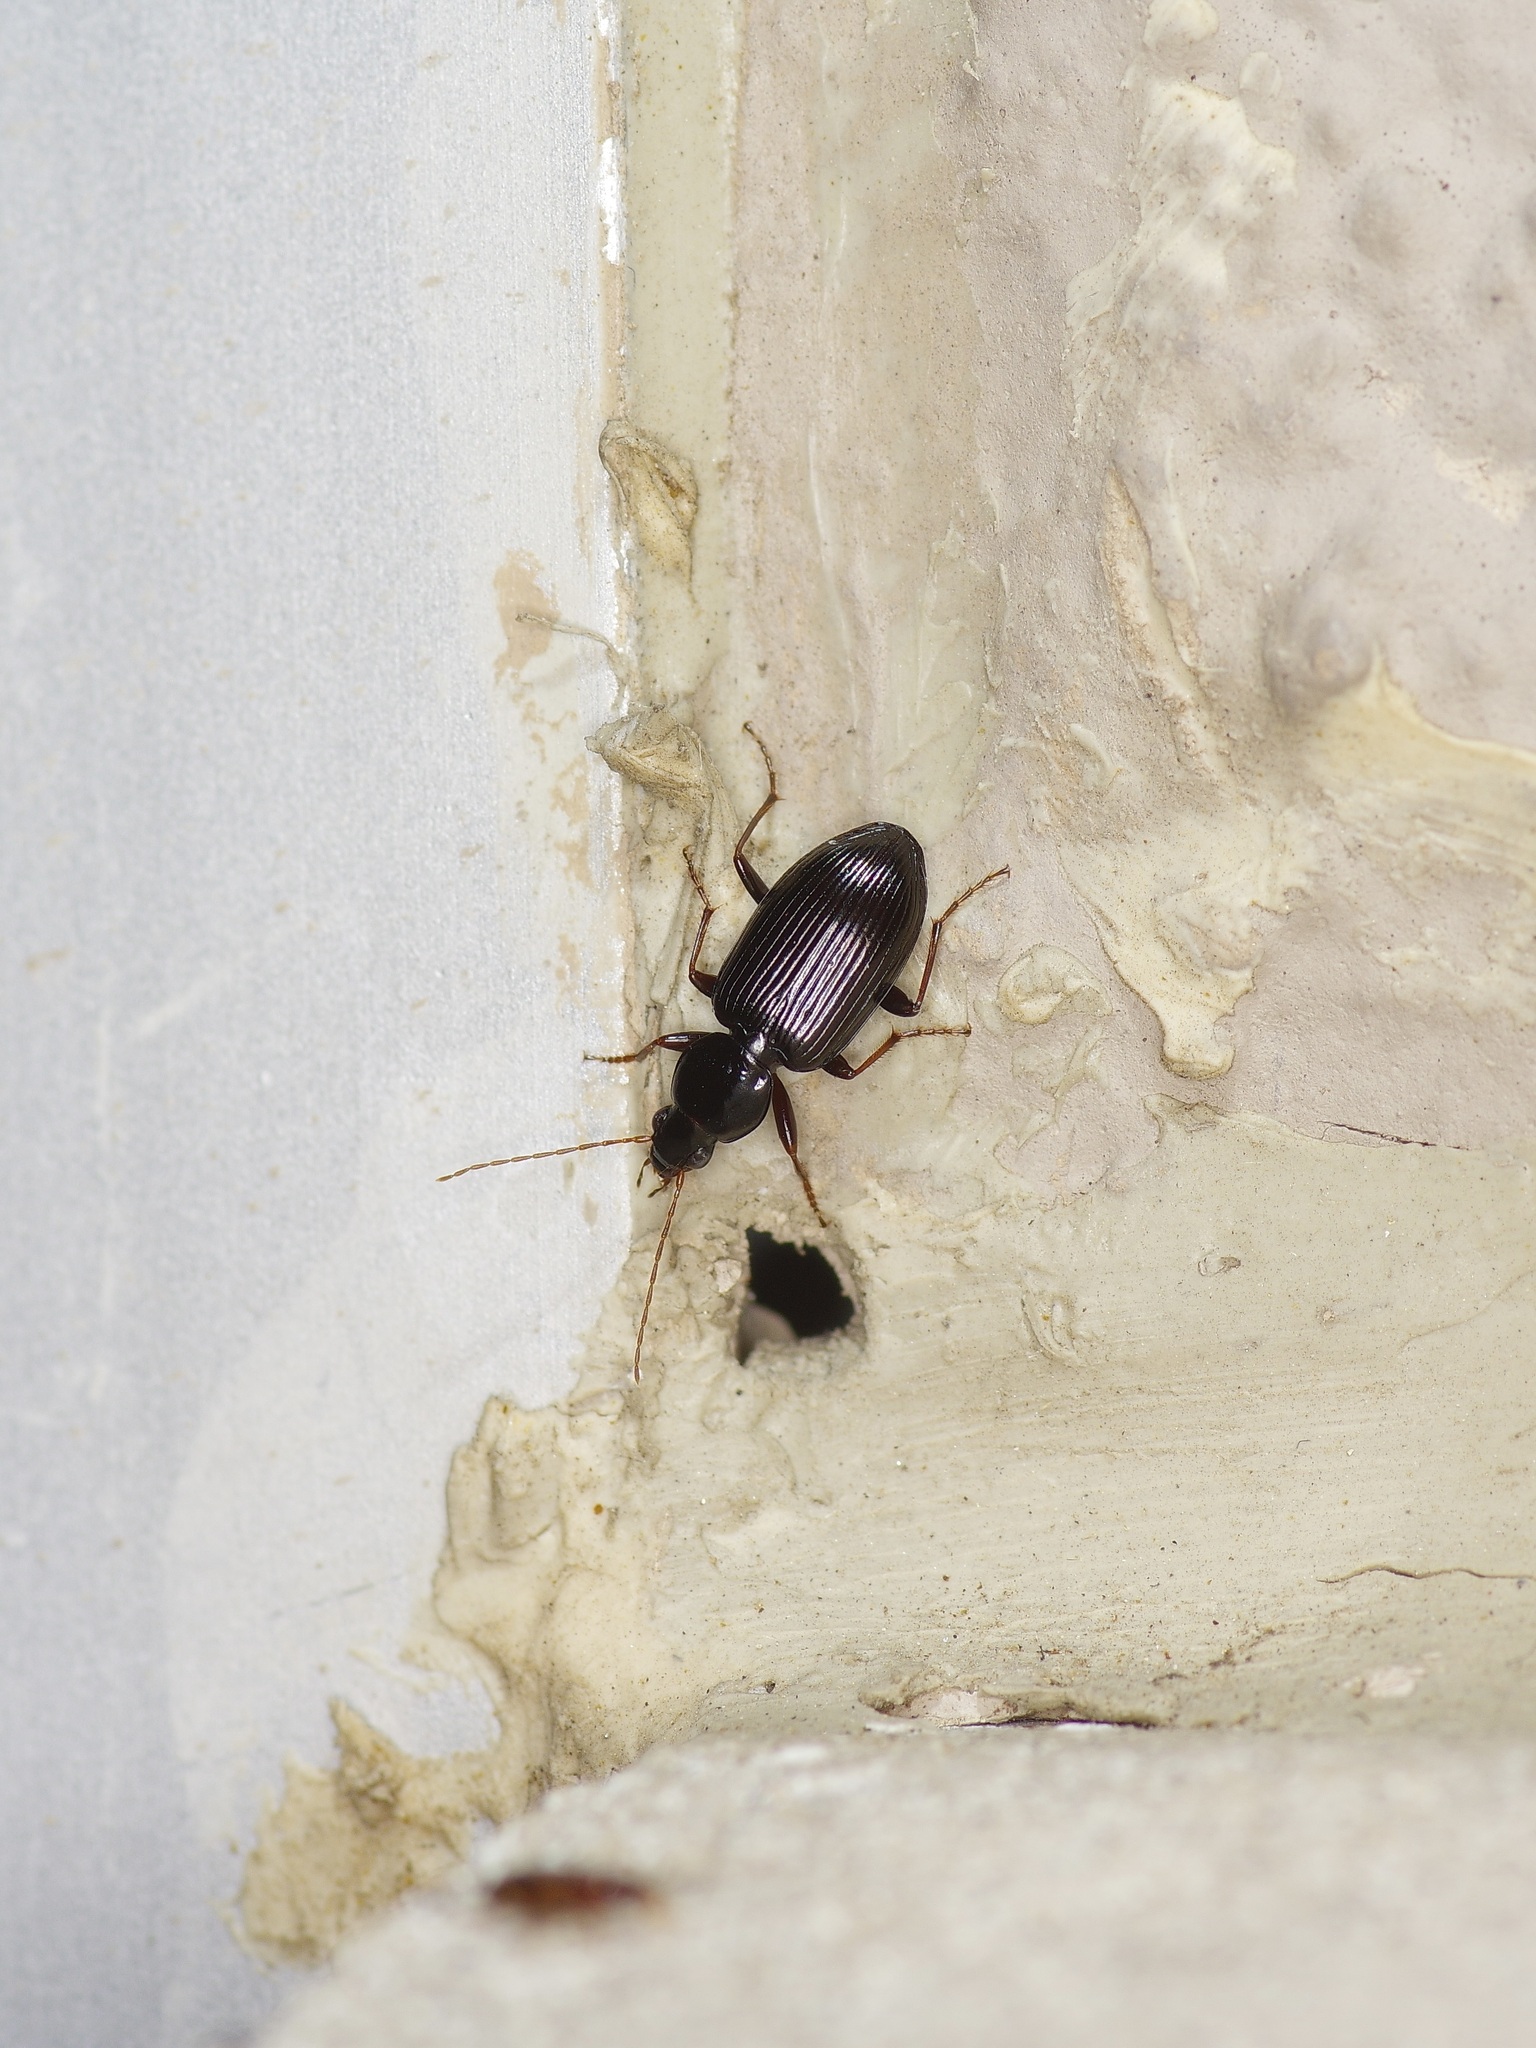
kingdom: Animalia
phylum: Arthropoda
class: Insecta
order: Coleoptera
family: Carabidae
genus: Agonum
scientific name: Agonum punctiforme
